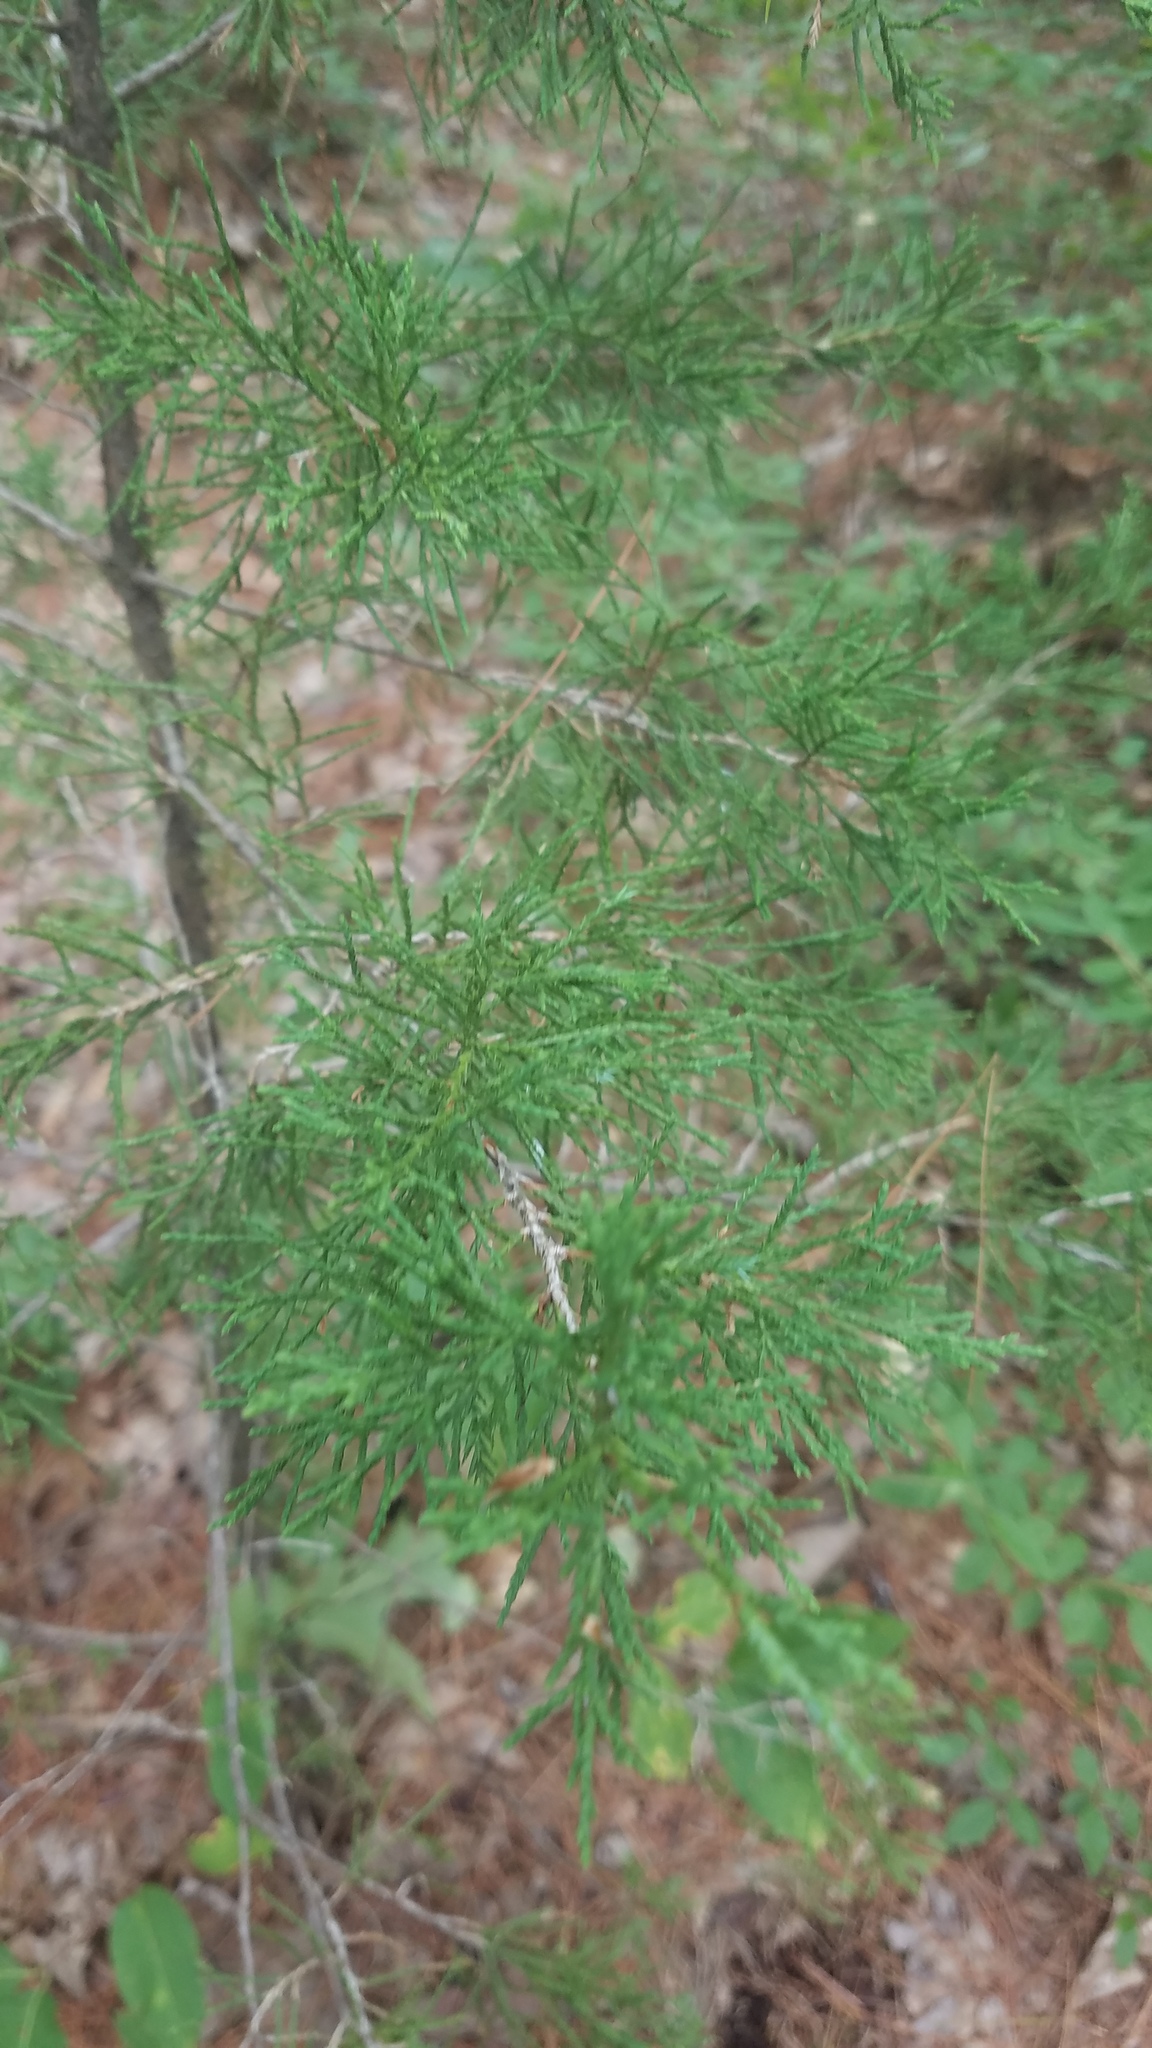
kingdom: Plantae
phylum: Tracheophyta
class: Pinopsida
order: Pinales
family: Cupressaceae
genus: Juniperus
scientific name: Juniperus virginiana
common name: Red juniper
